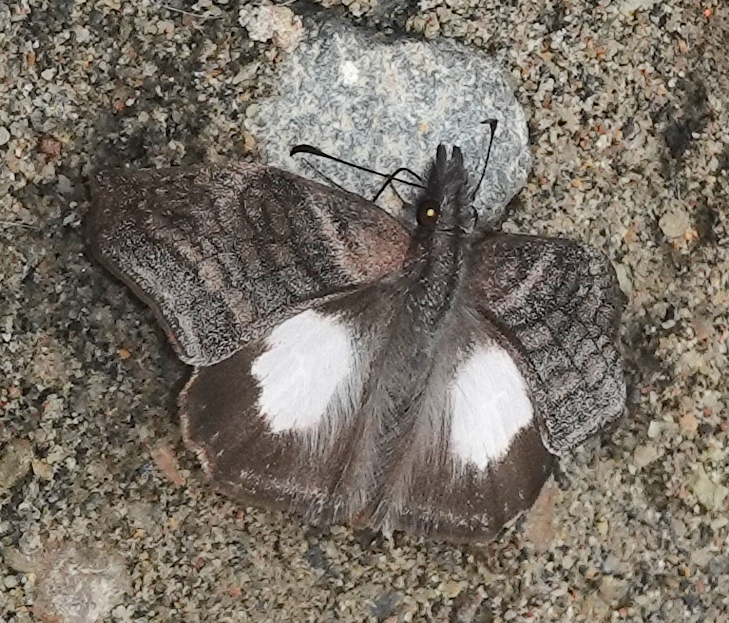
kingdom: Animalia
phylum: Arthropoda
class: Insecta
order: Lepidoptera
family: Hesperiidae
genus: Theagenes
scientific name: Theagenes albiplaga
